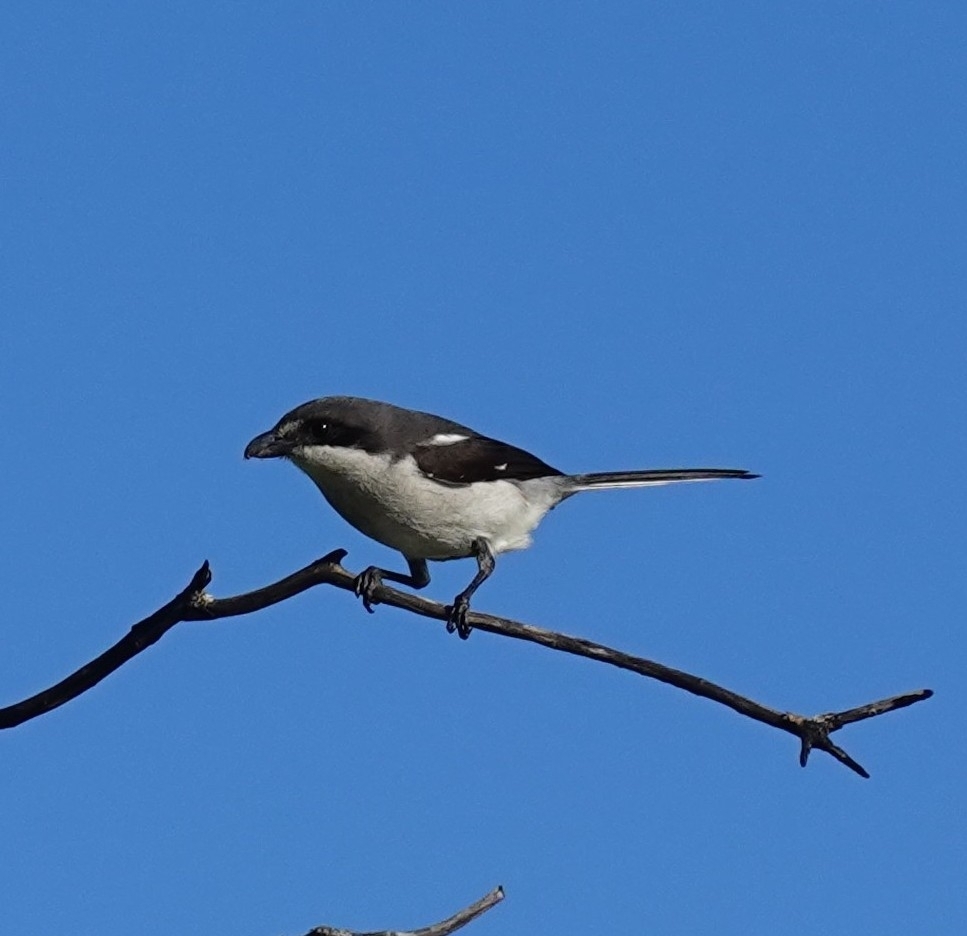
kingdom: Animalia
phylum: Chordata
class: Aves
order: Passeriformes
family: Laniidae
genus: Lanius
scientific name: Lanius collaris
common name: Southern fiscal
